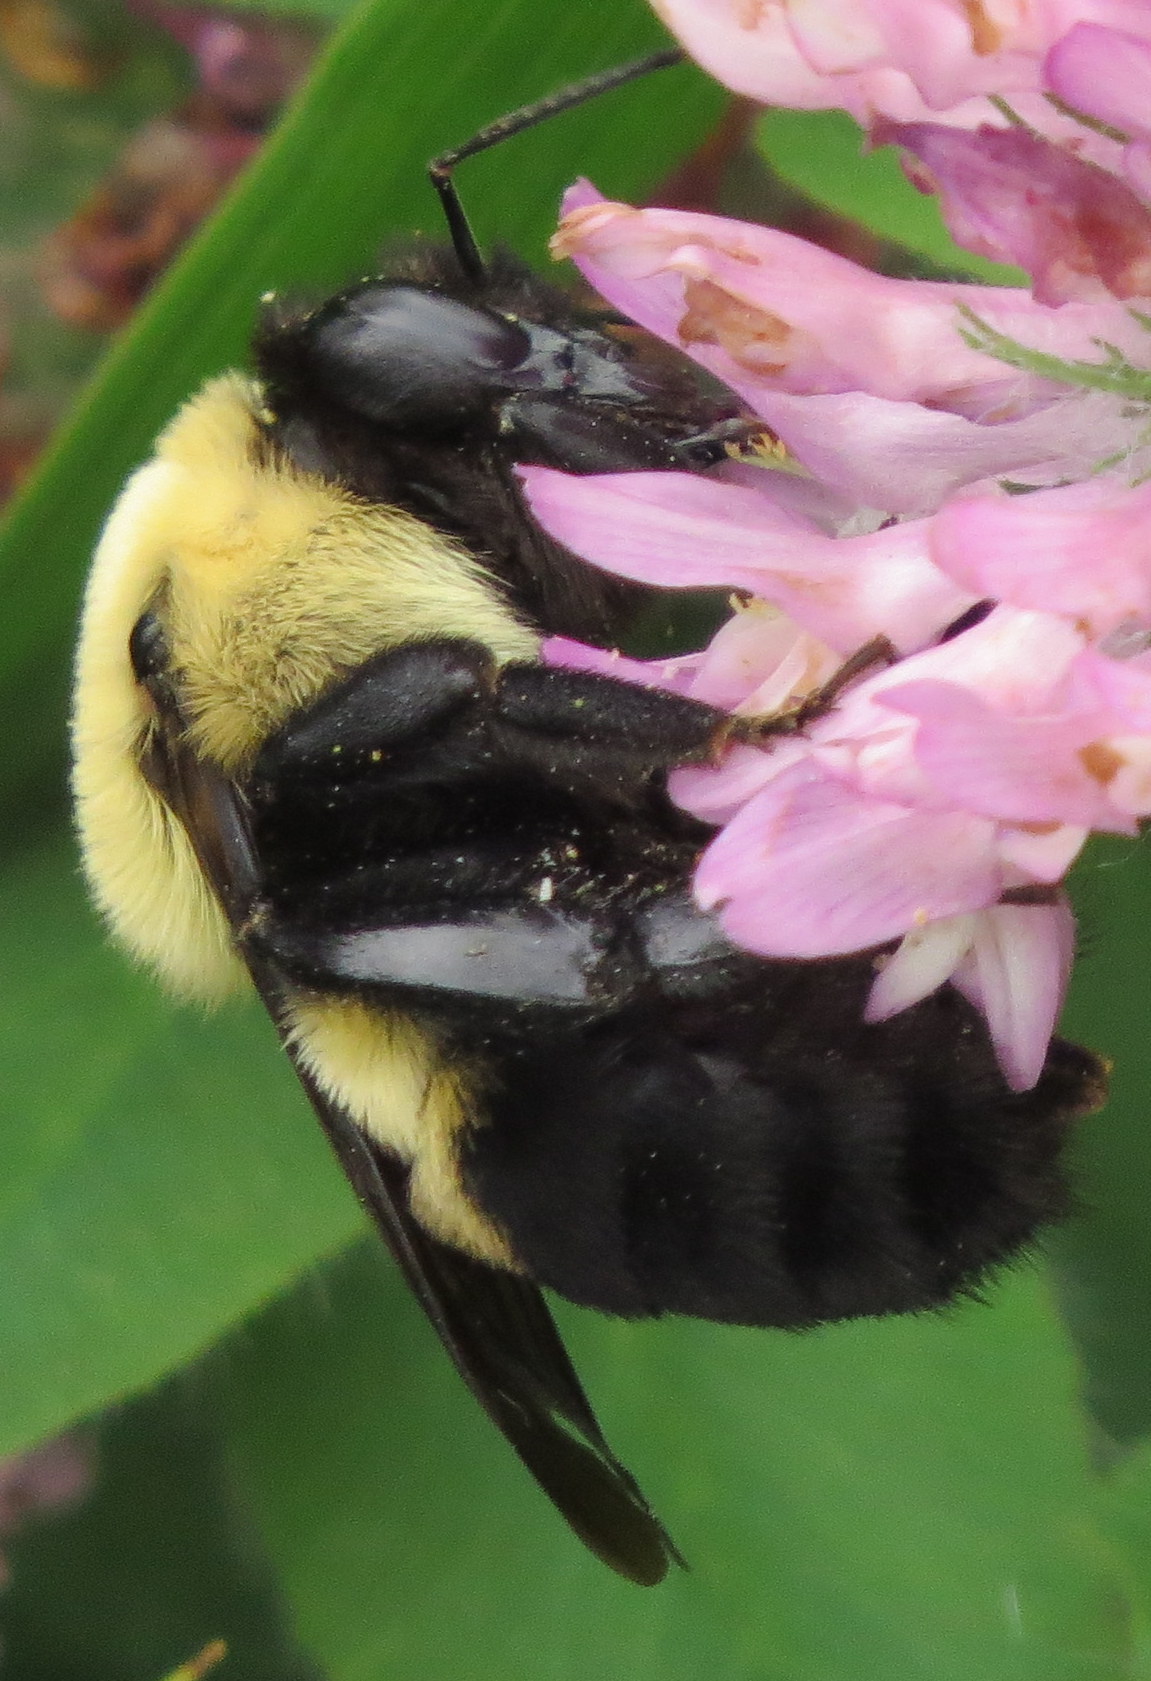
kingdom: Animalia
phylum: Arthropoda
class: Insecta
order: Hymenoptera
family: Apidae
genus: Bombus
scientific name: Bombus griseocollis
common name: Brown-belted bumble bee
